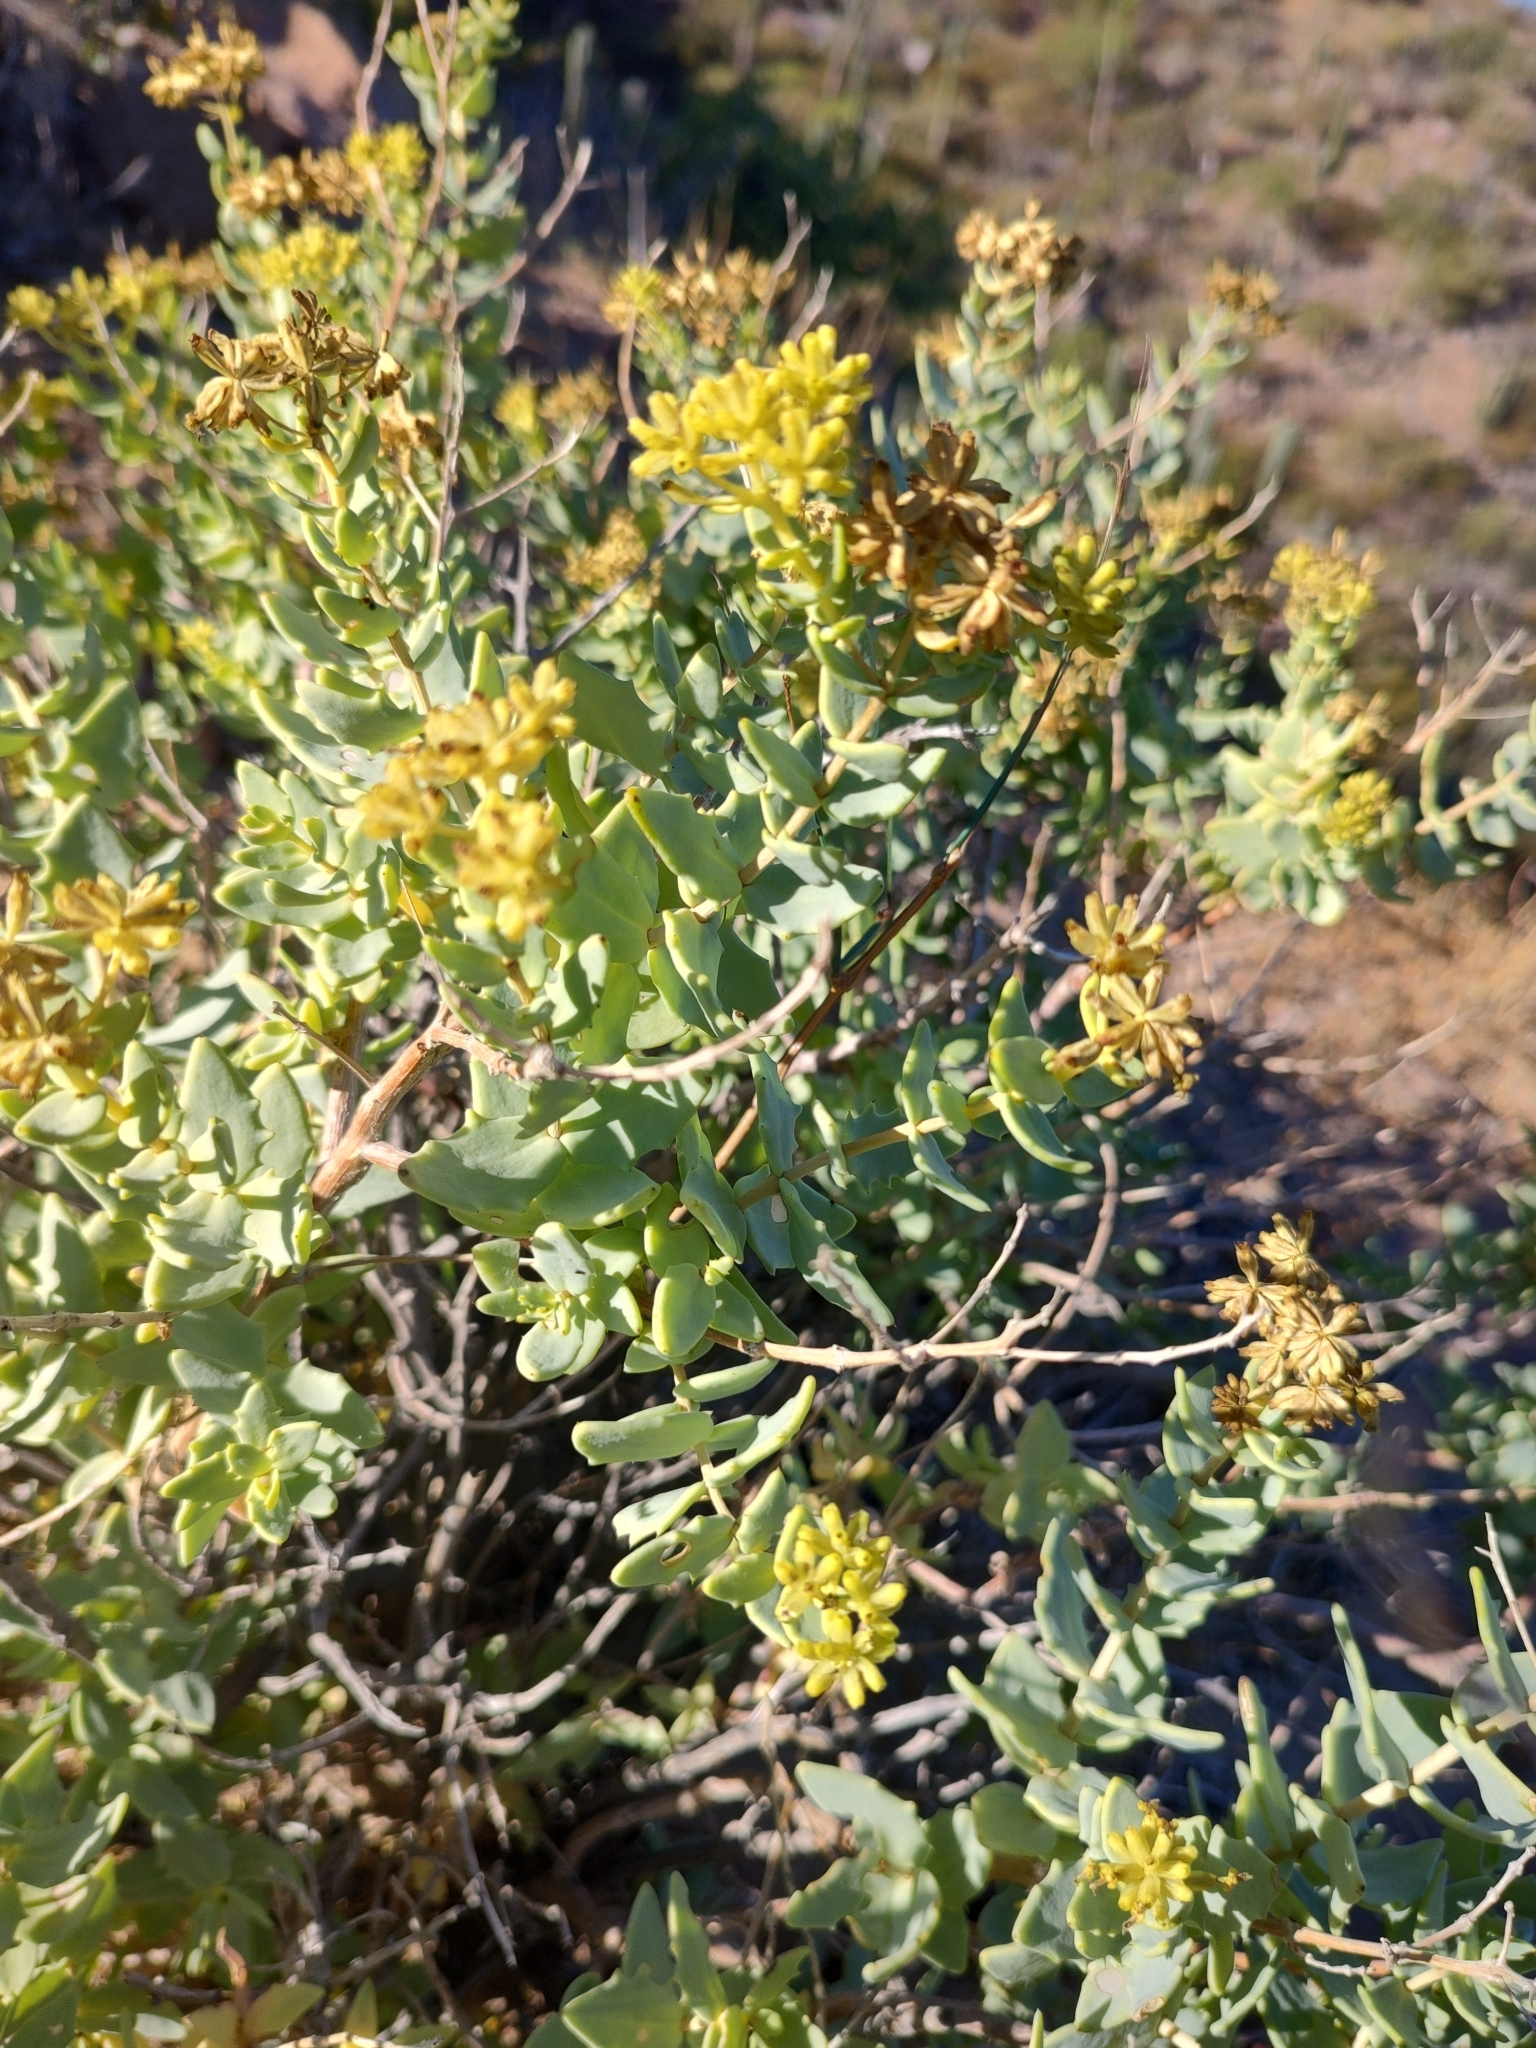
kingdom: Plantae
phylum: Tracheophyta
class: Magnoliopsida
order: Asterales
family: Asteraceae
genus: Coulterella
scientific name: Coulterella capitata
